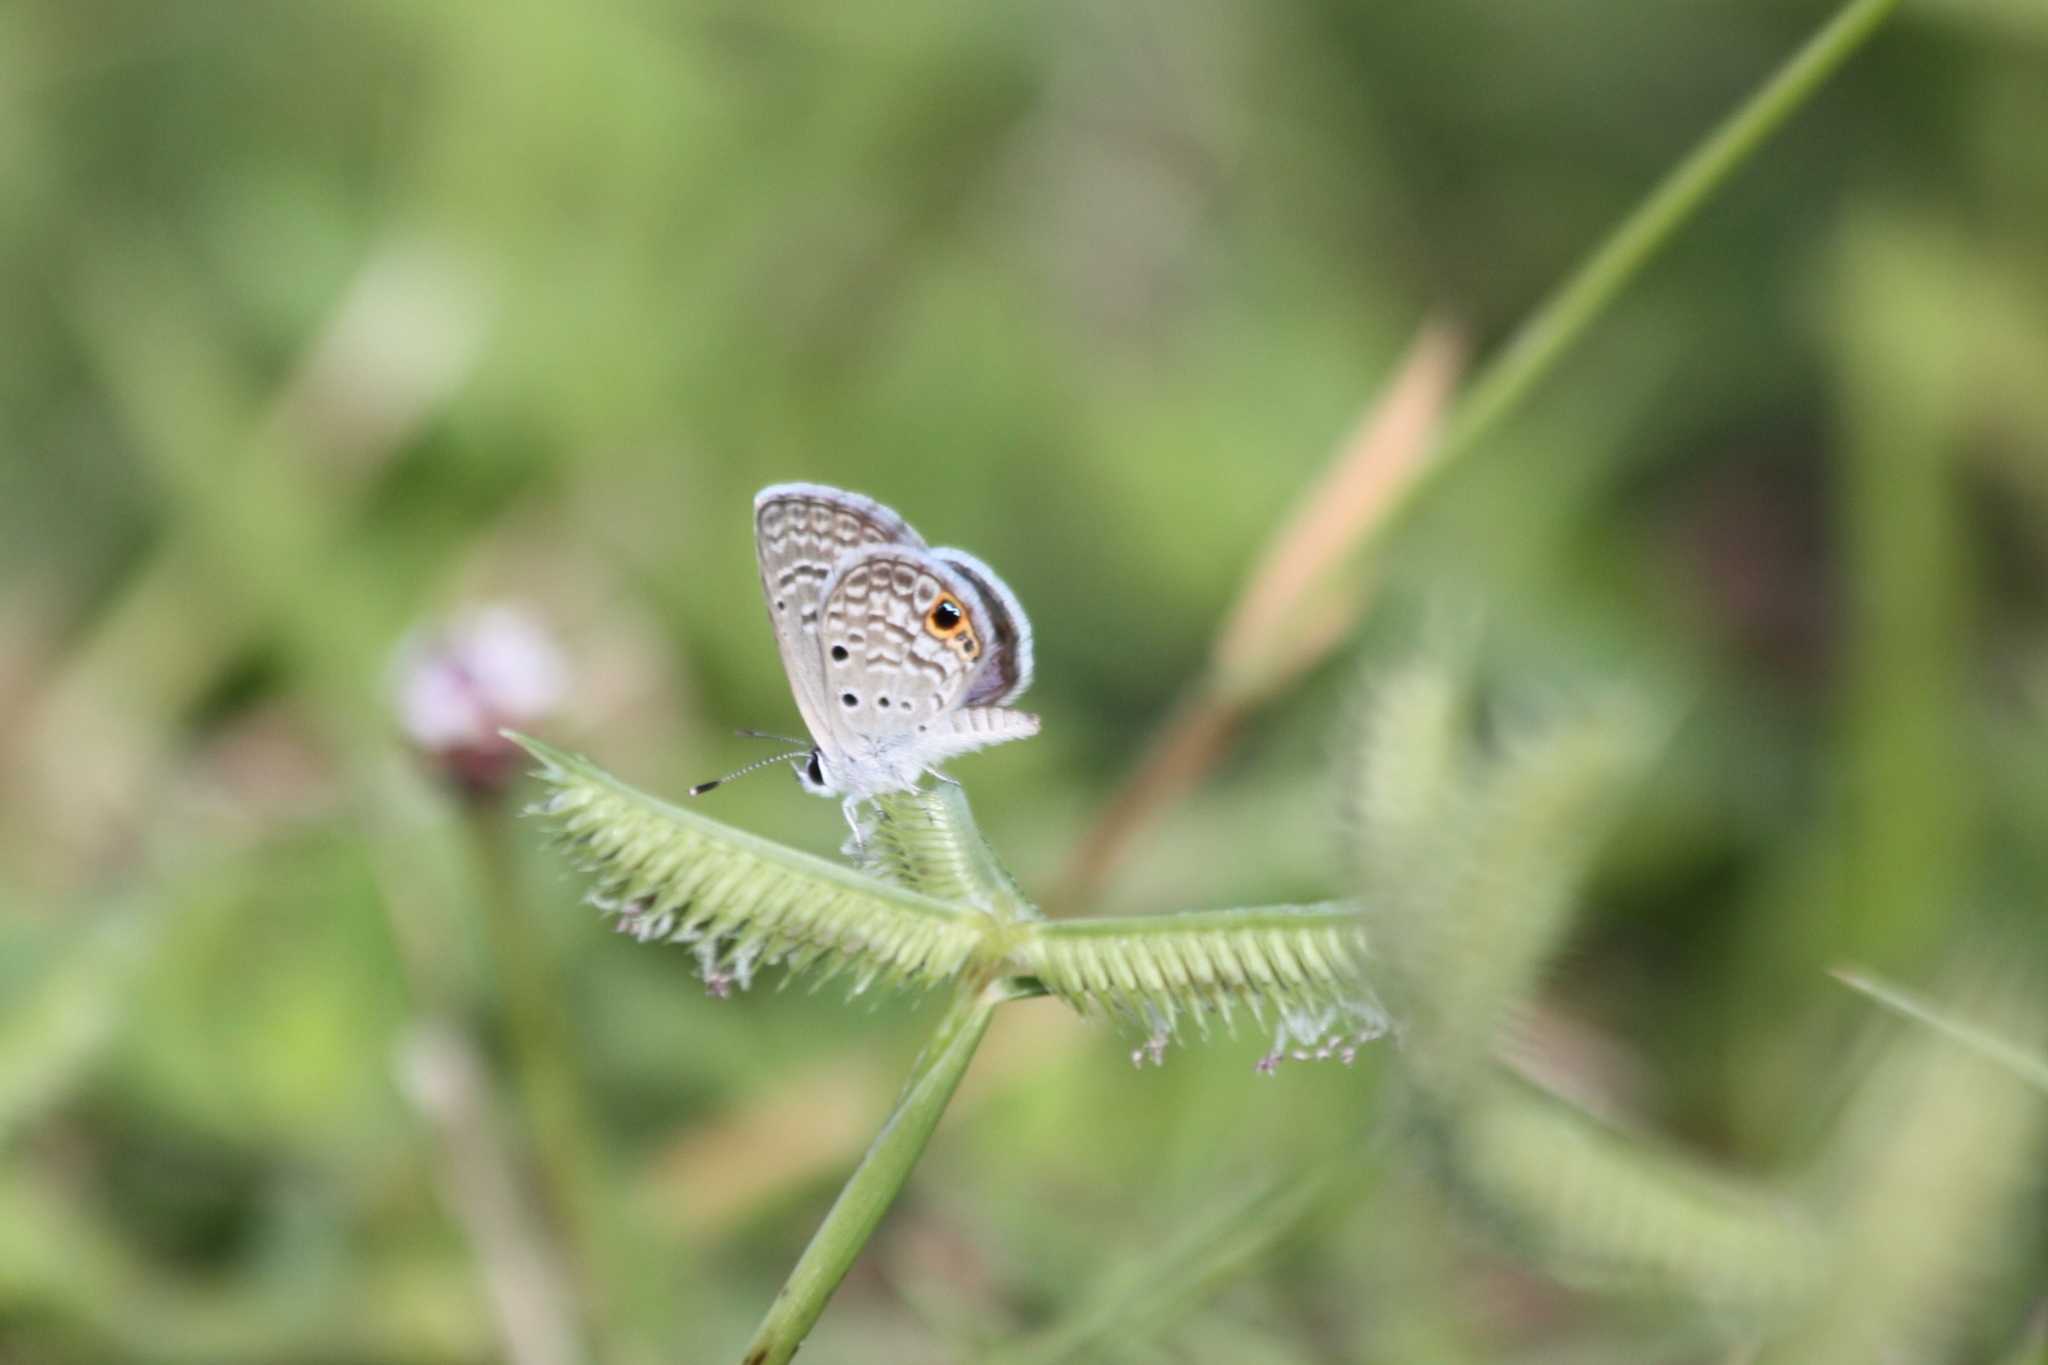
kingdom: Animalia
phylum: Arthropoda
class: Insecta
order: Lepidoptera
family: Lycaenidae
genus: Hemiargus
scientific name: Hemiargus ceraunus
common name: Ceraunus blue
